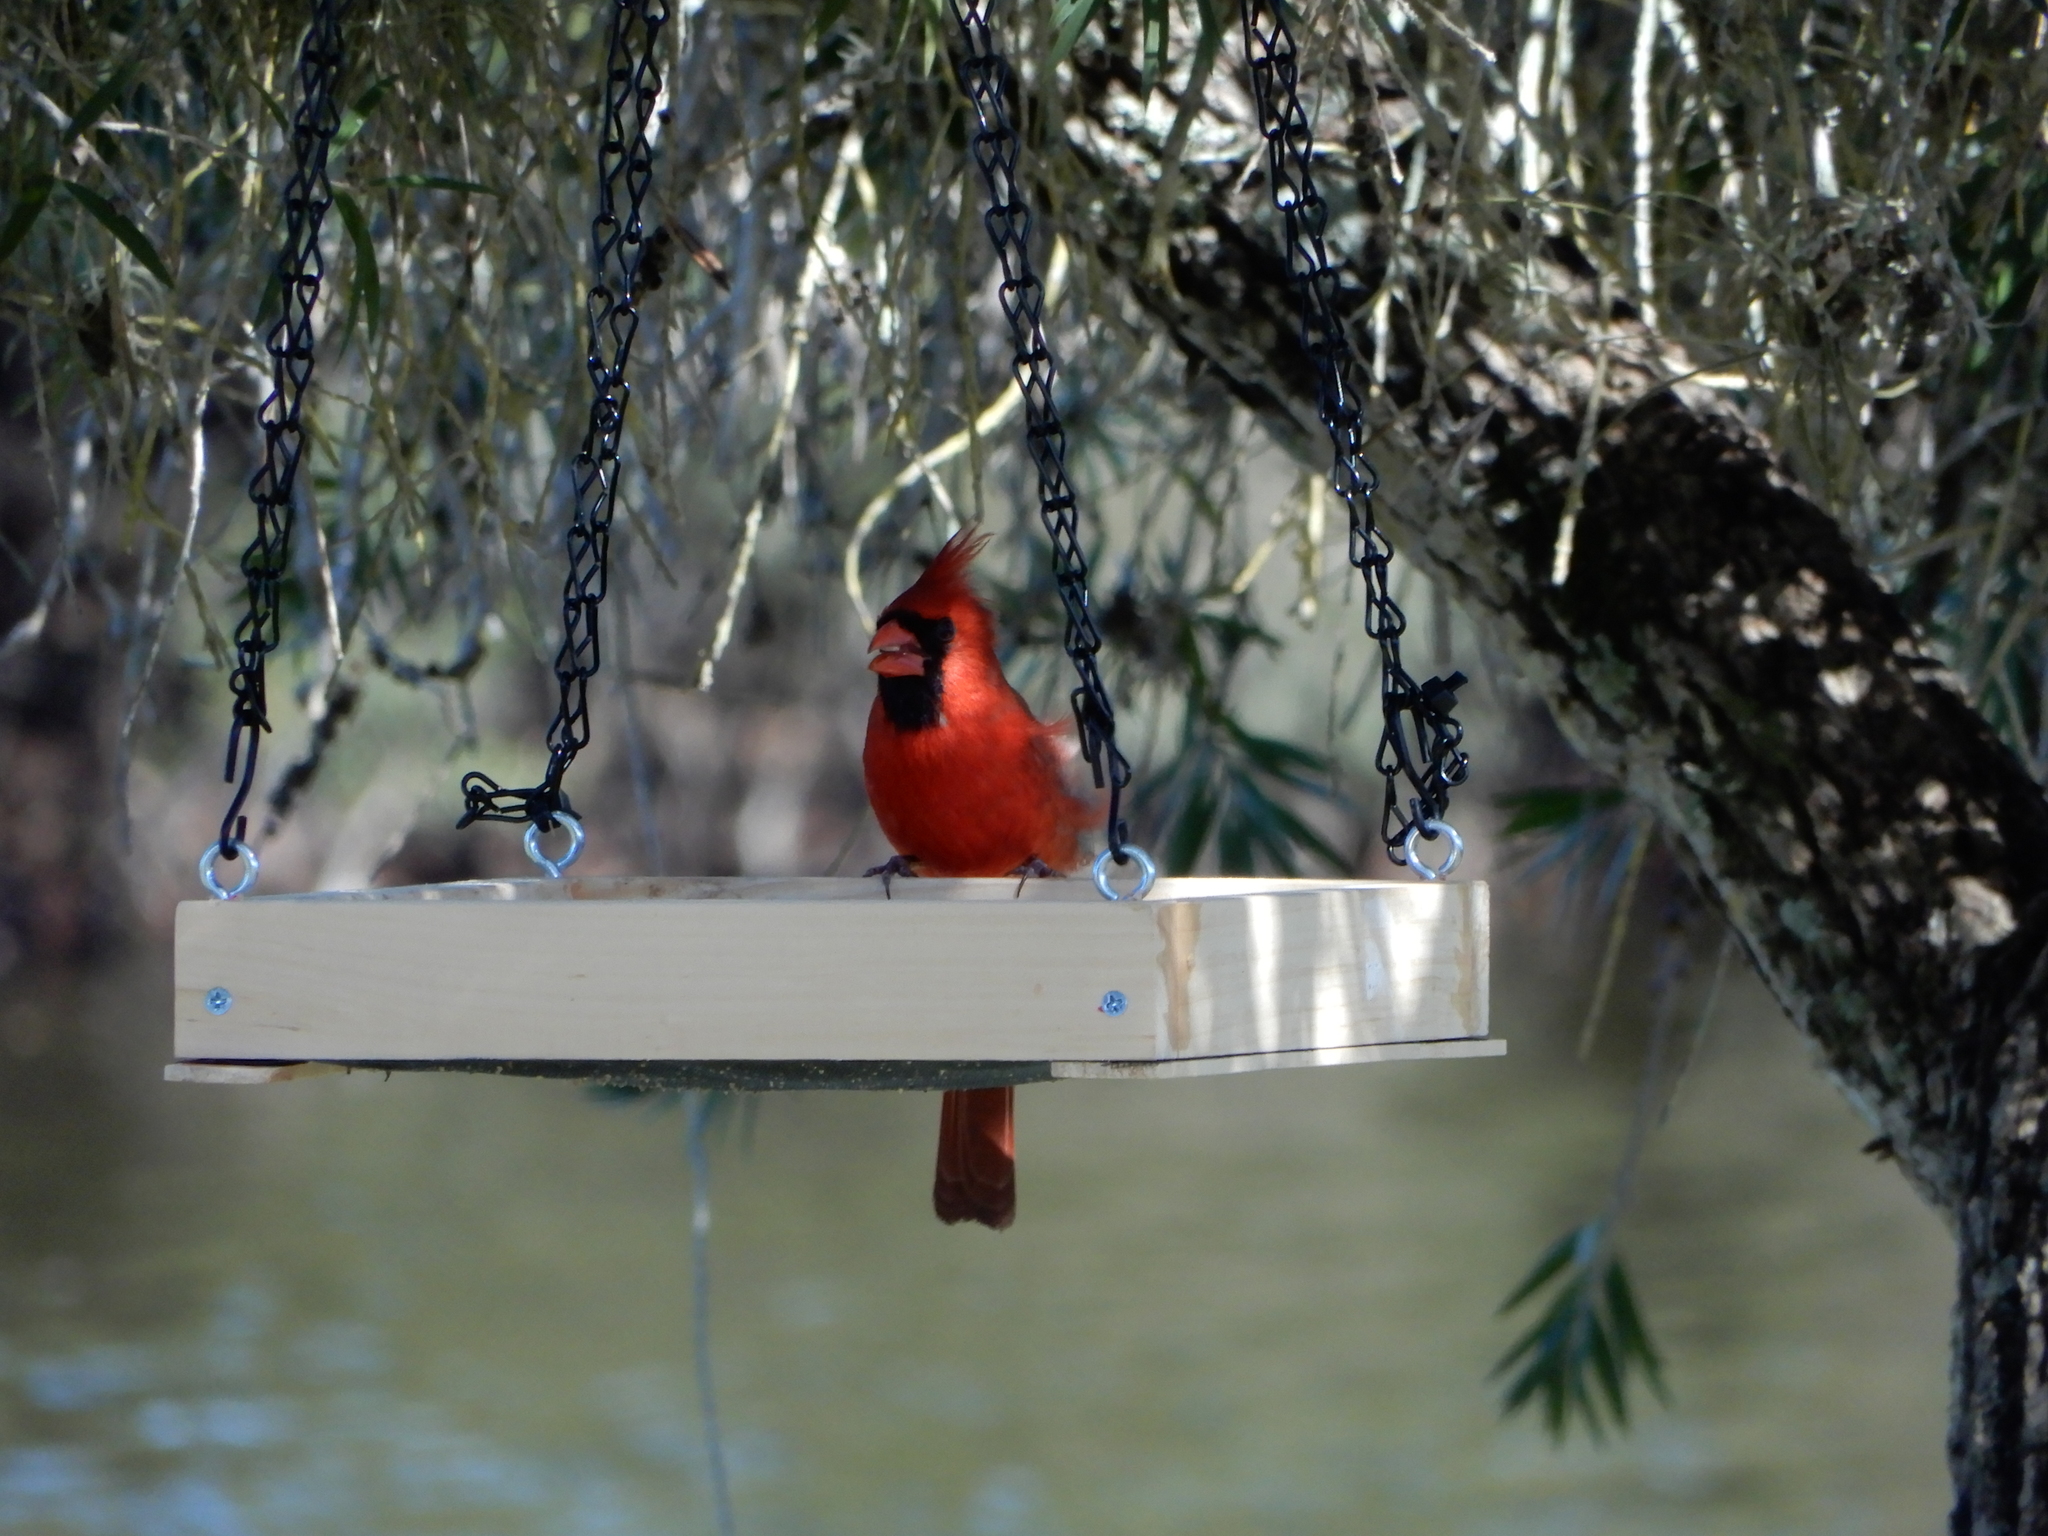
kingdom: Animalia
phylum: Chordata
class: Aves
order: Passeriformes
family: Cardinalidae
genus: Cardinalis
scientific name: Cardinalis cardinalis
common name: Northern cardinal
